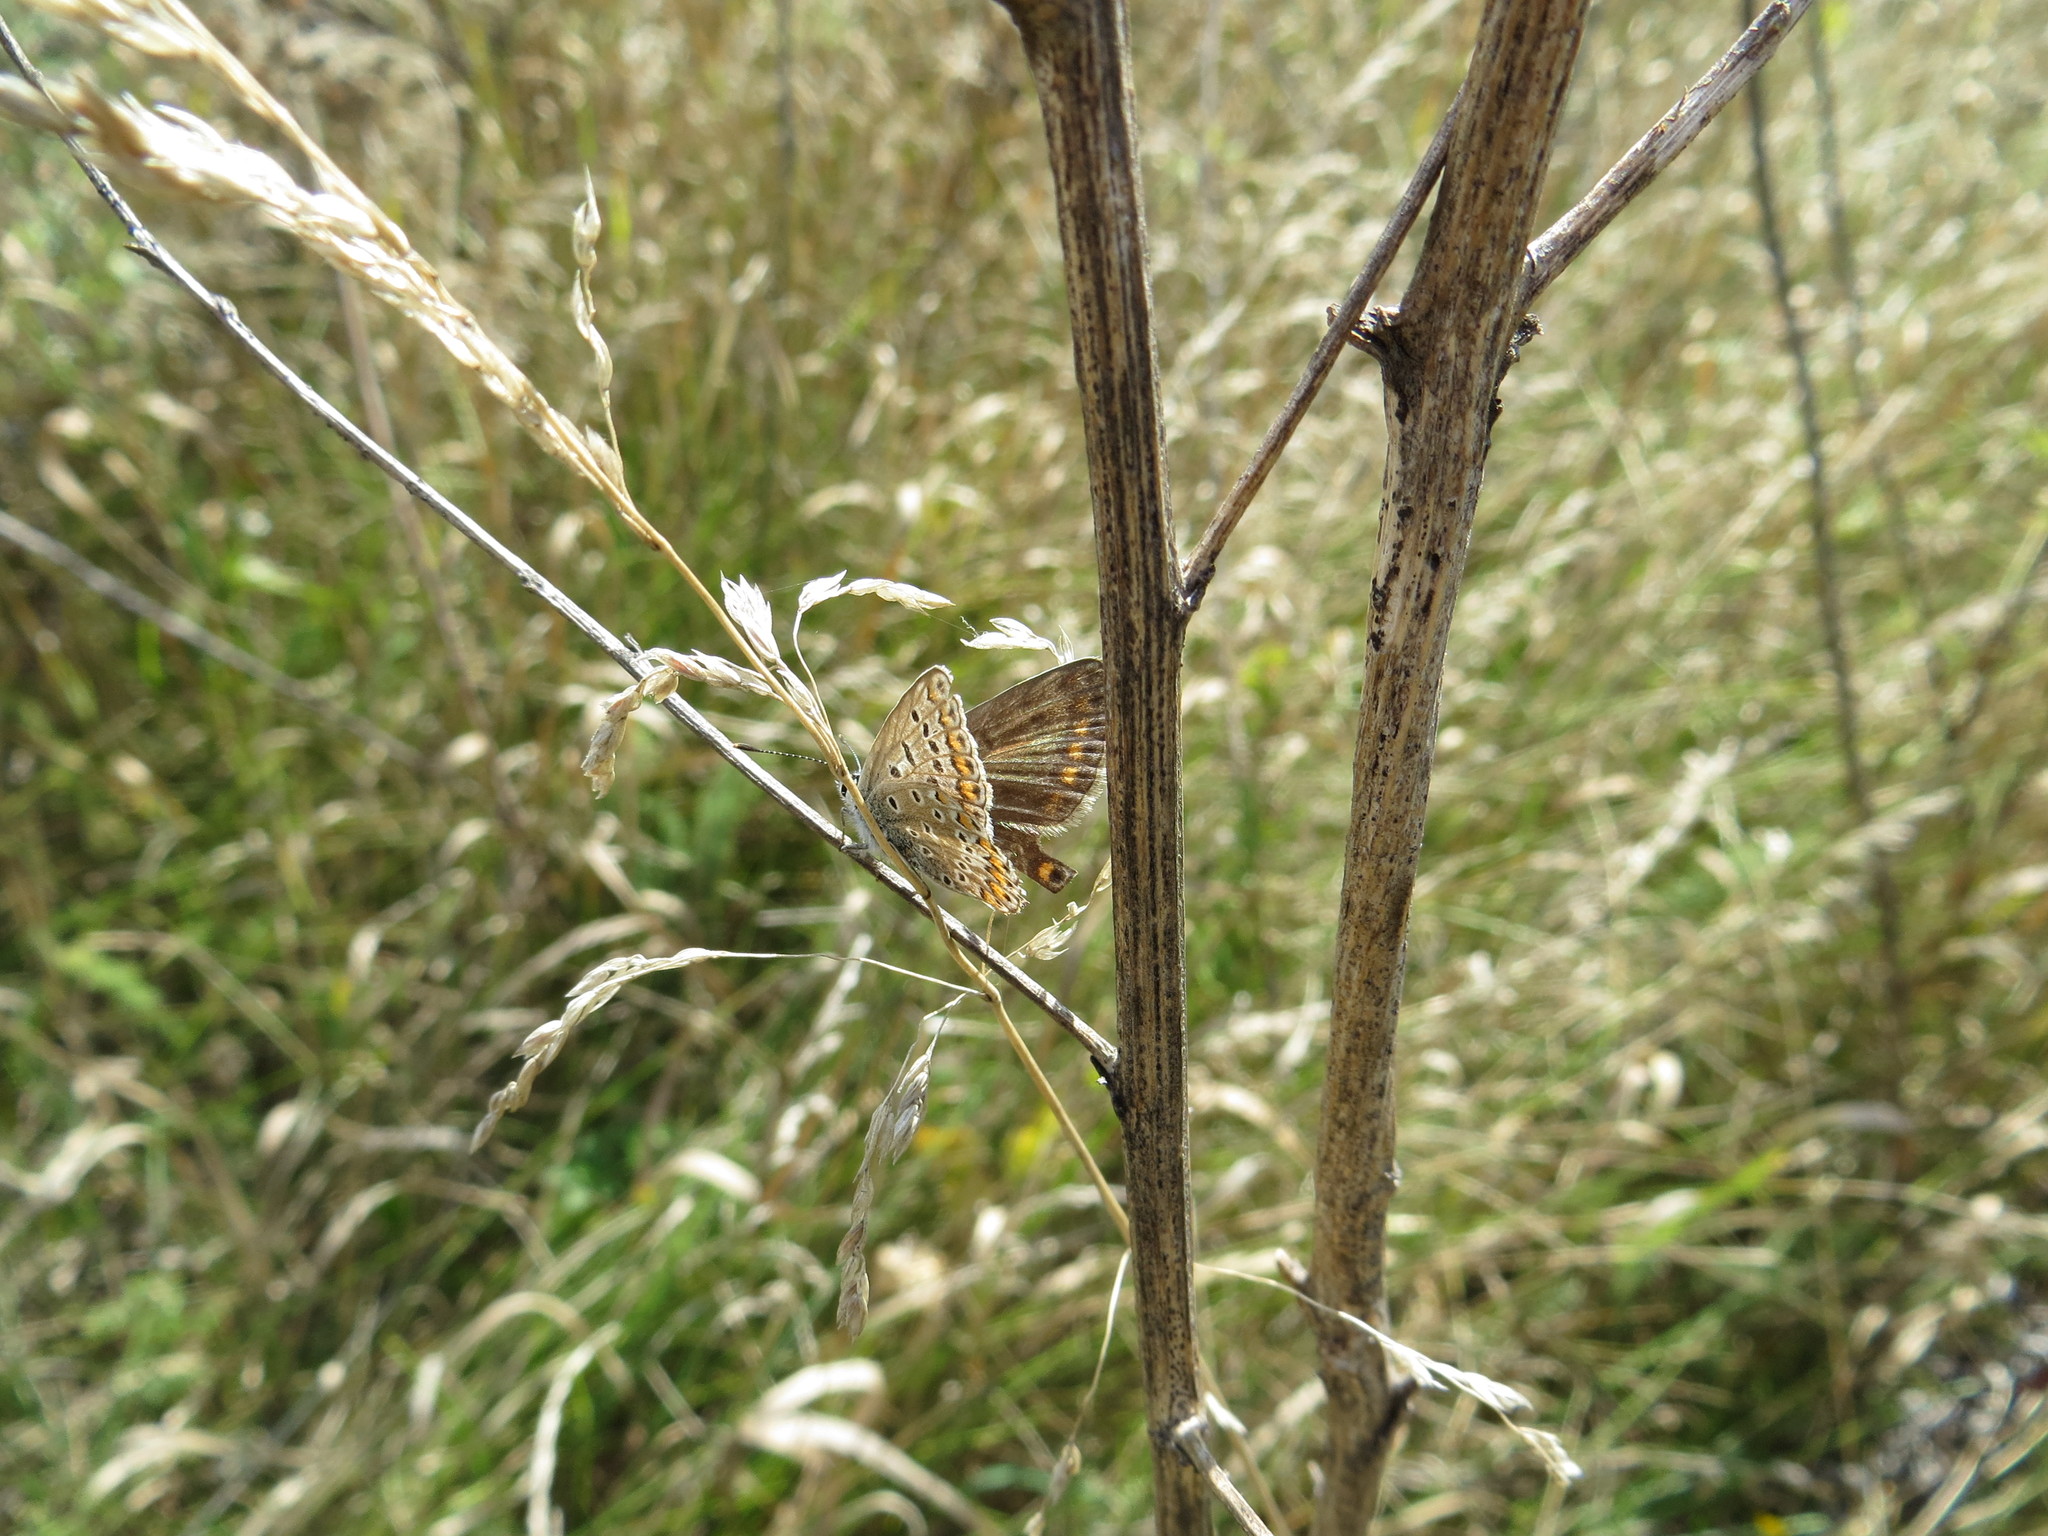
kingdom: Animalia
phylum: Arthropoda
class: Insecta
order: Lepidoptera
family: Lycaenidae
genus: Polyommatus
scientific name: Polyommatus icarus
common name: Common blue
